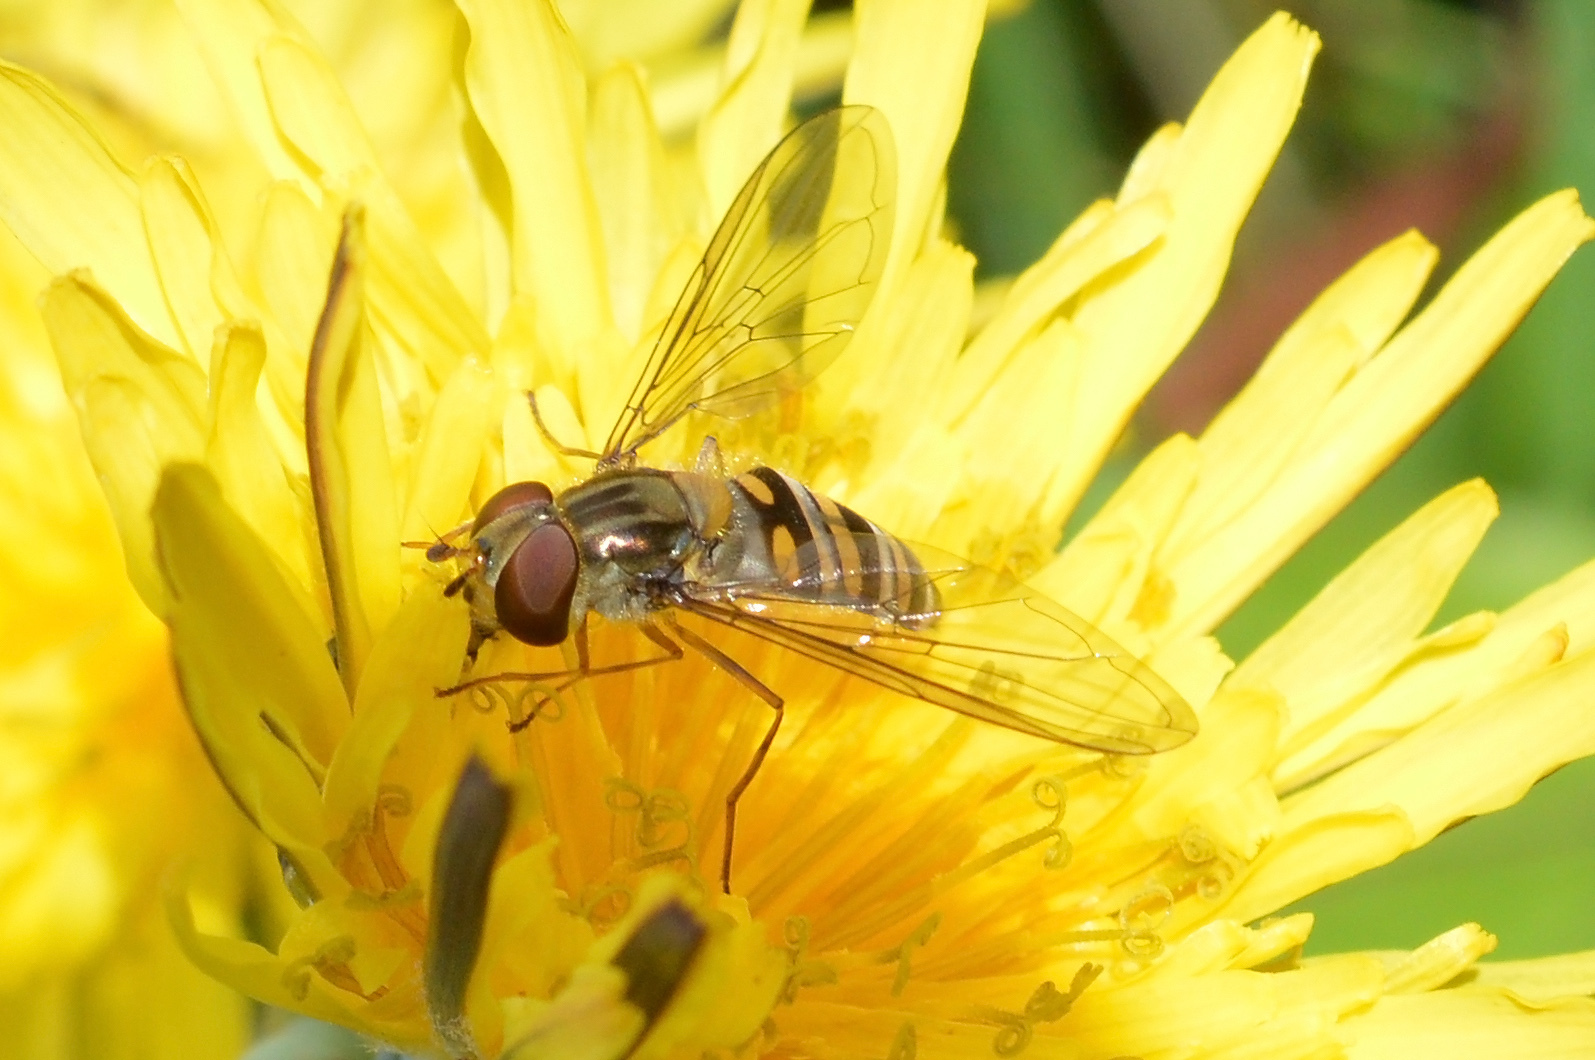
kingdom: Animalia
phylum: Arthropoda
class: Insecta
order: Diptera
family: Syrphidae
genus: Episyrphus
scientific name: Episyrphus balteatus
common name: Marmalade hoverfly
